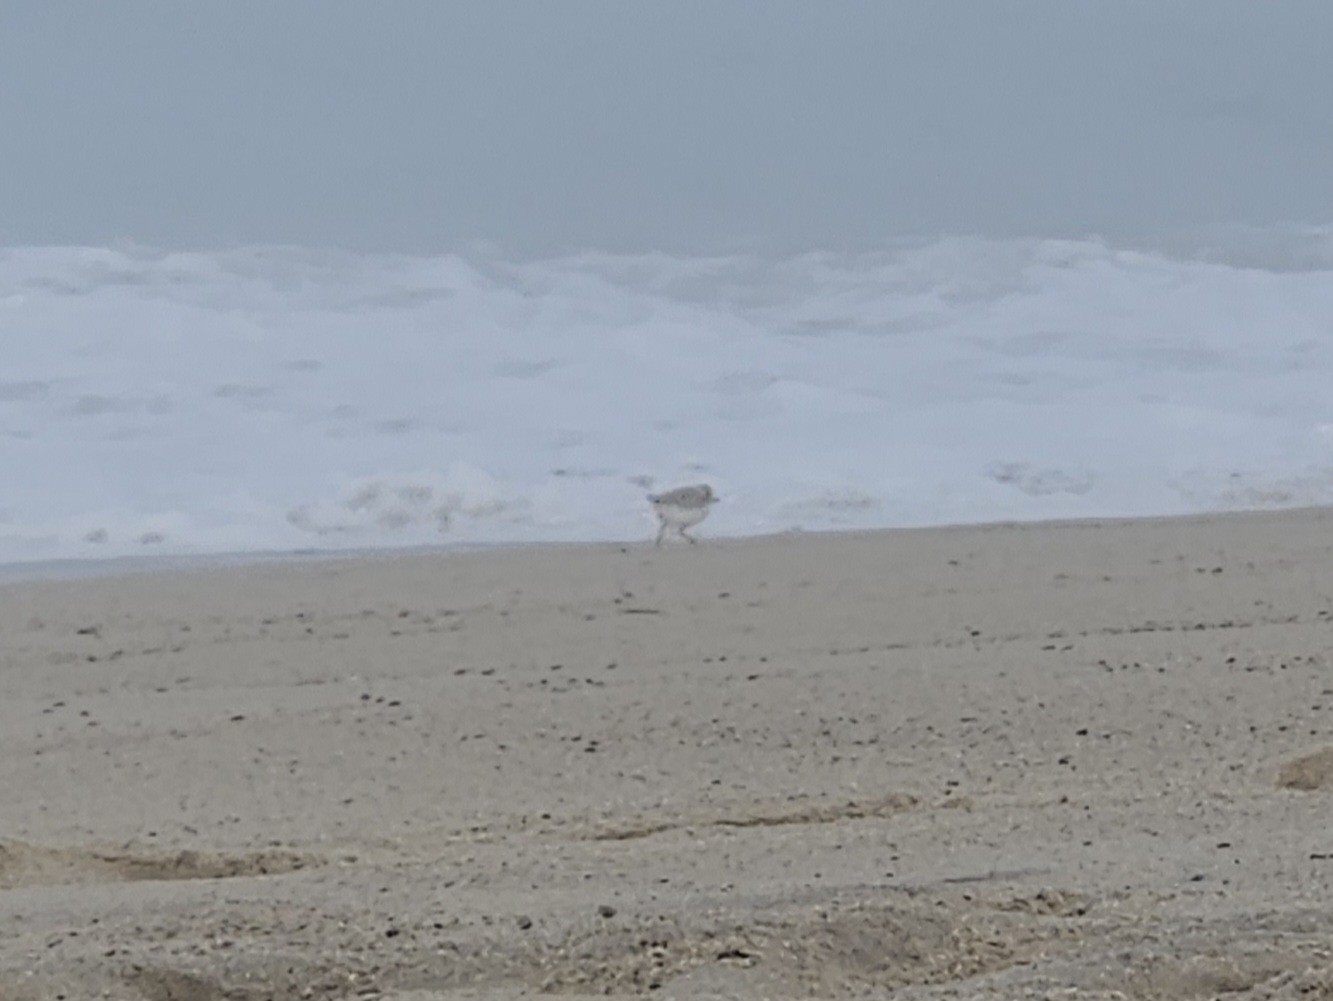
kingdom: Animalia
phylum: Chordata
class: Aves
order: Charadriiformes
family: Charadriidae
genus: Charadrius
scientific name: Charadrius melodus
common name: Piping plover
